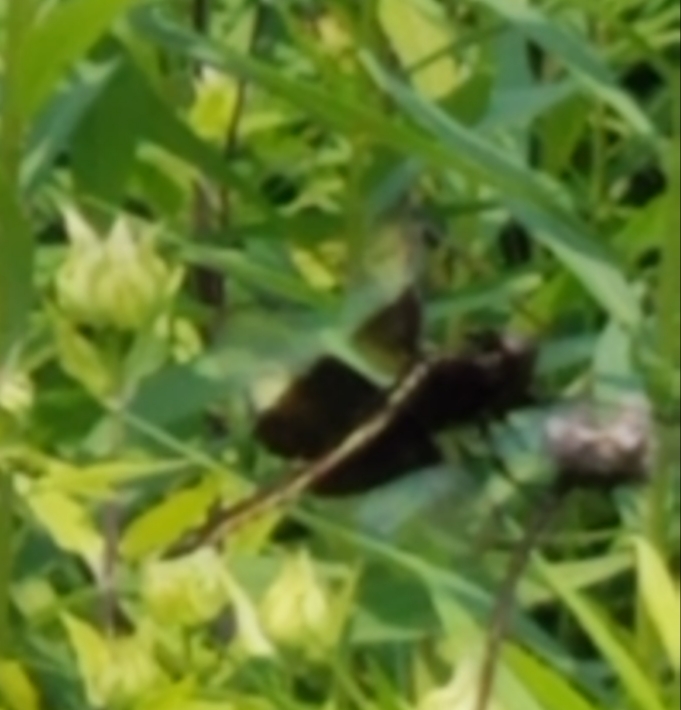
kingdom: Animalia
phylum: Arthropoda
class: Insecta
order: Odonata
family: Libellulidae
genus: Libellula
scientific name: Libellula luctuosa
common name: Widow skimmer
